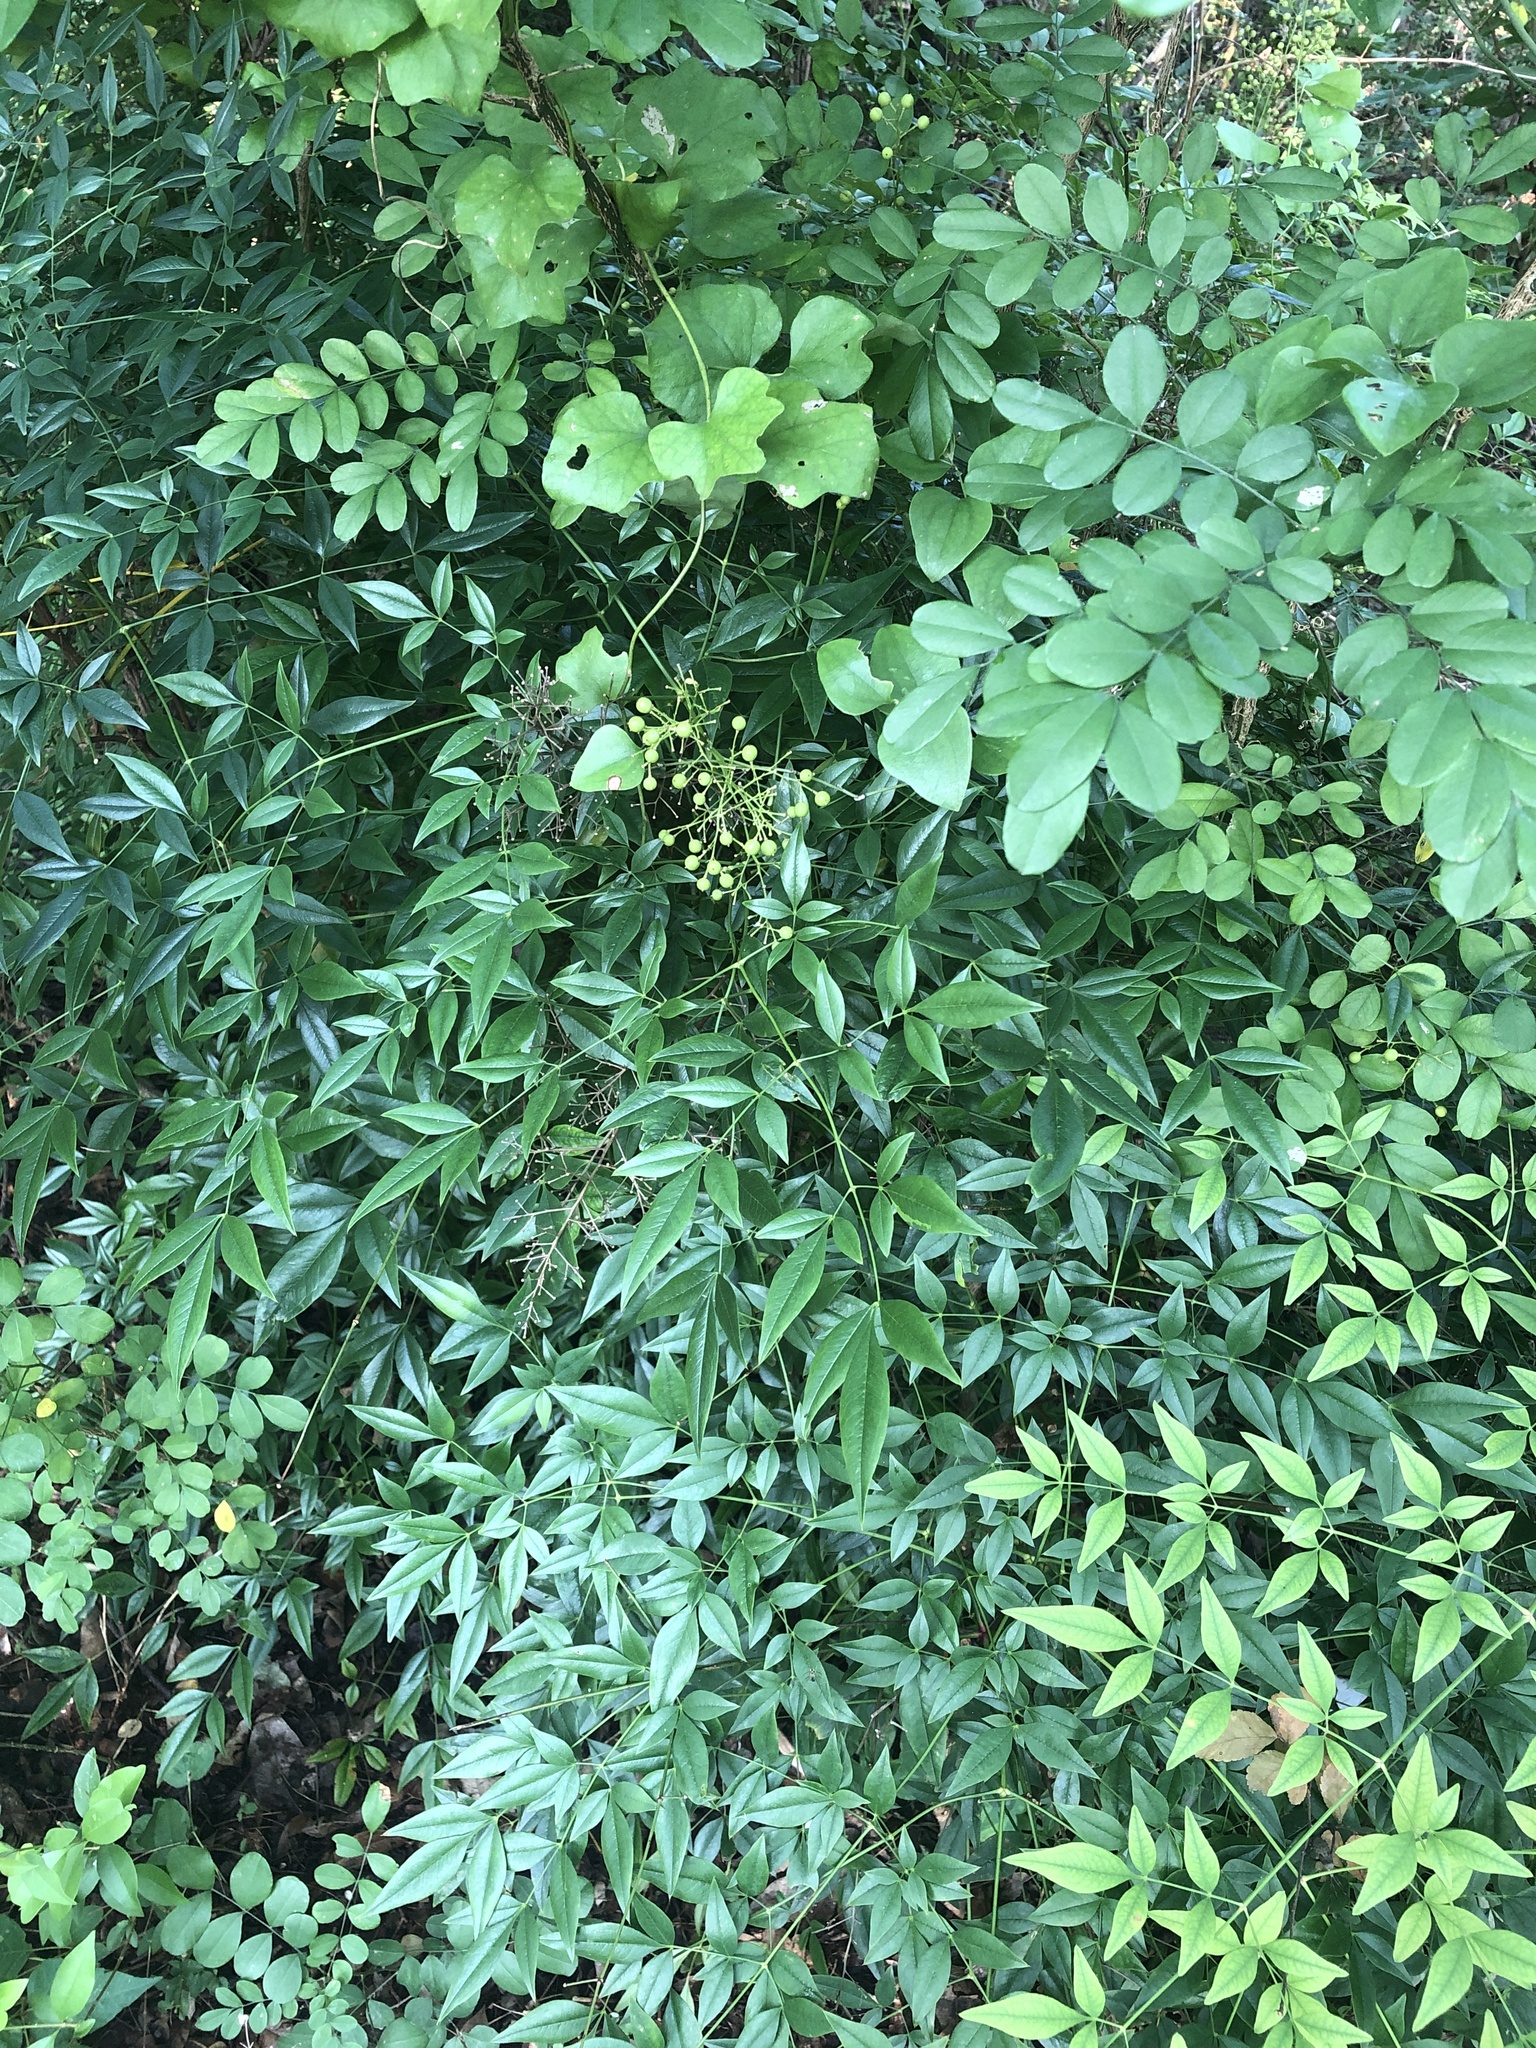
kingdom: Plantae
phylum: Tracheophyta
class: Magnoliopsida
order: Ranunculales
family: Berberidaceae
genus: Nandina
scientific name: Nandina domestica
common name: Sacred bamboo
